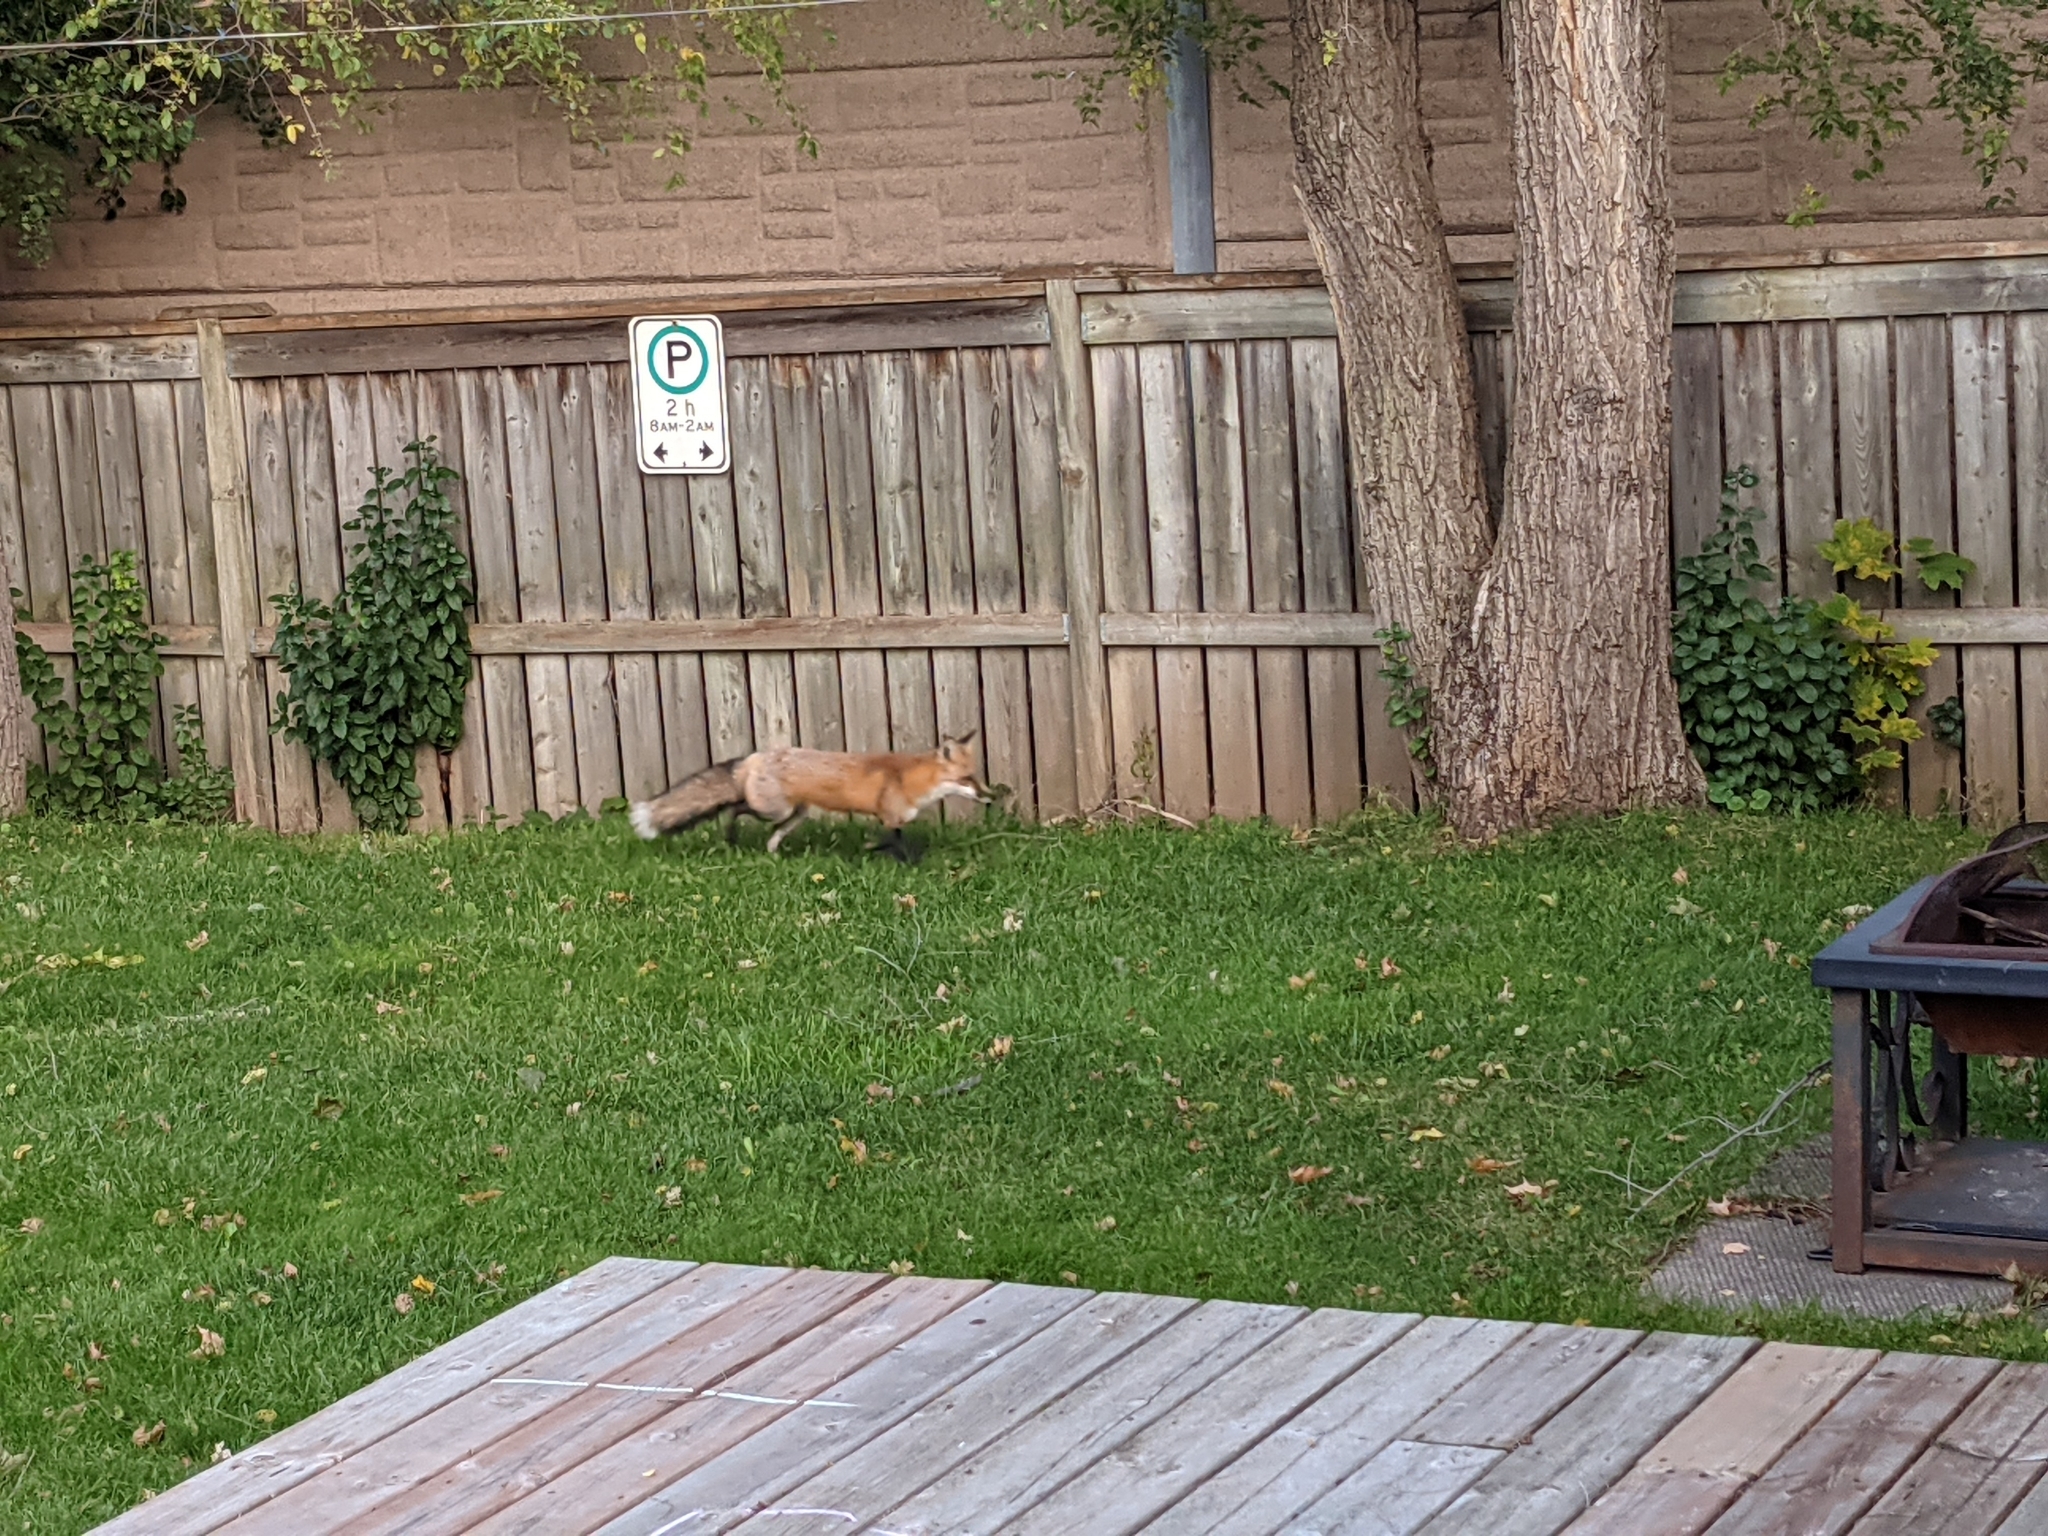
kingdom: Animalia
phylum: Chordata
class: Mammalia
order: Carnivora
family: Canidae
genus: Vulpes
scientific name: Vulpes vulpes
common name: Red fox
